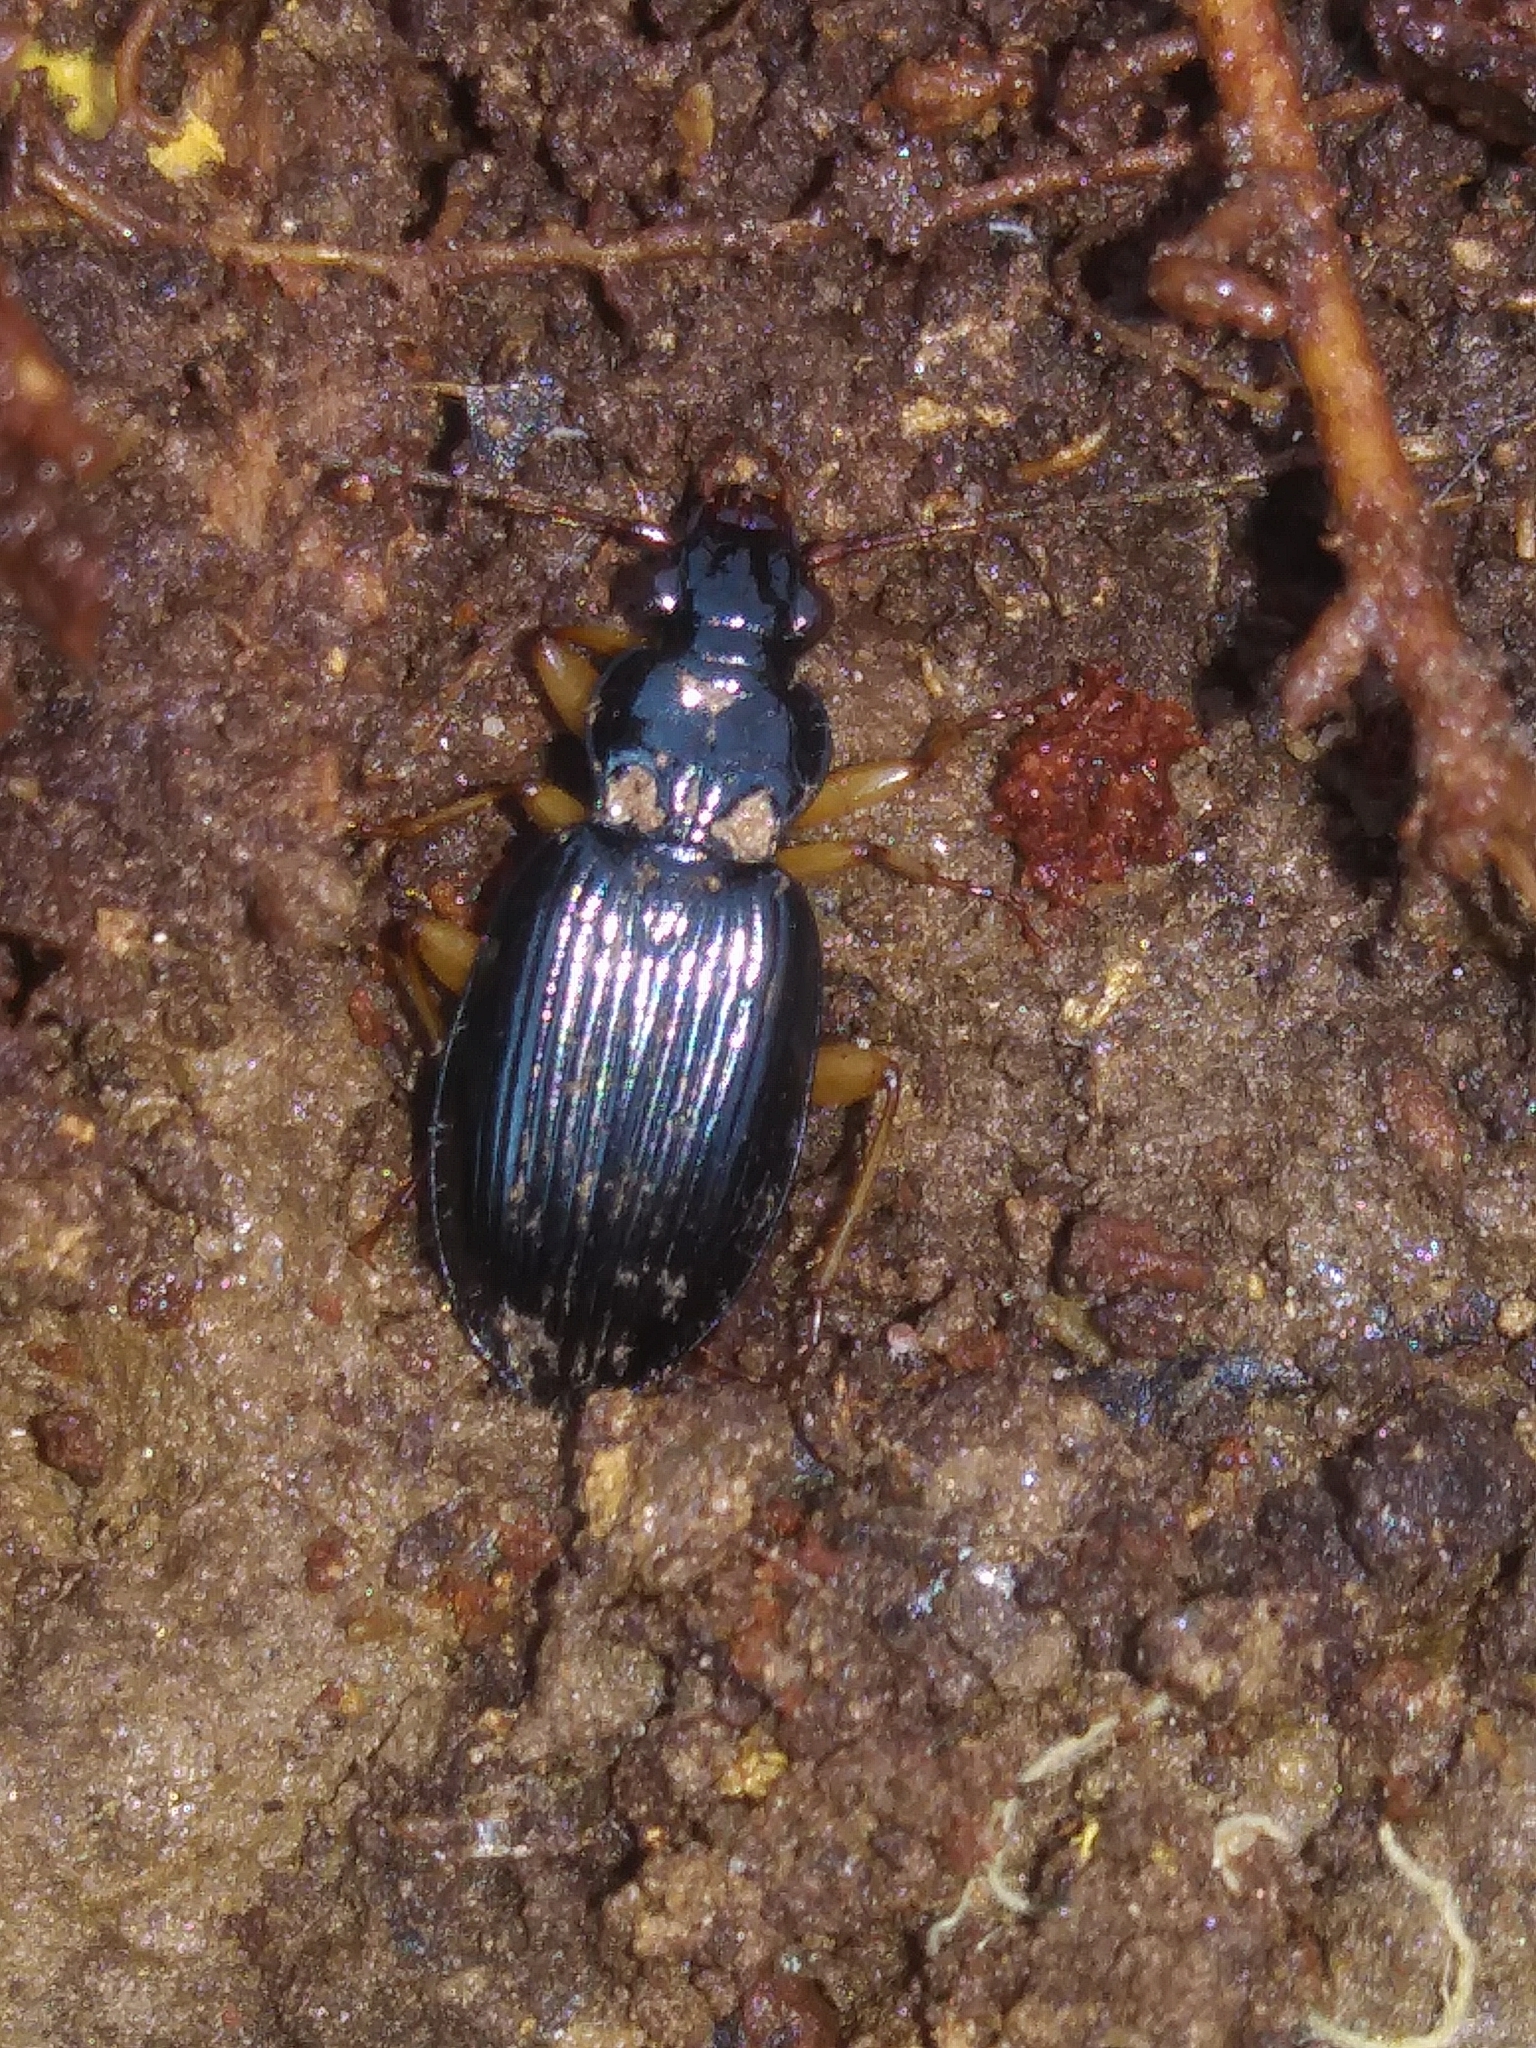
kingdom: Animalia
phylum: Arthropoda
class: Insecta
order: Coleoptera
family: Carabidae
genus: Patrobus
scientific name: Patrobus longicornis
